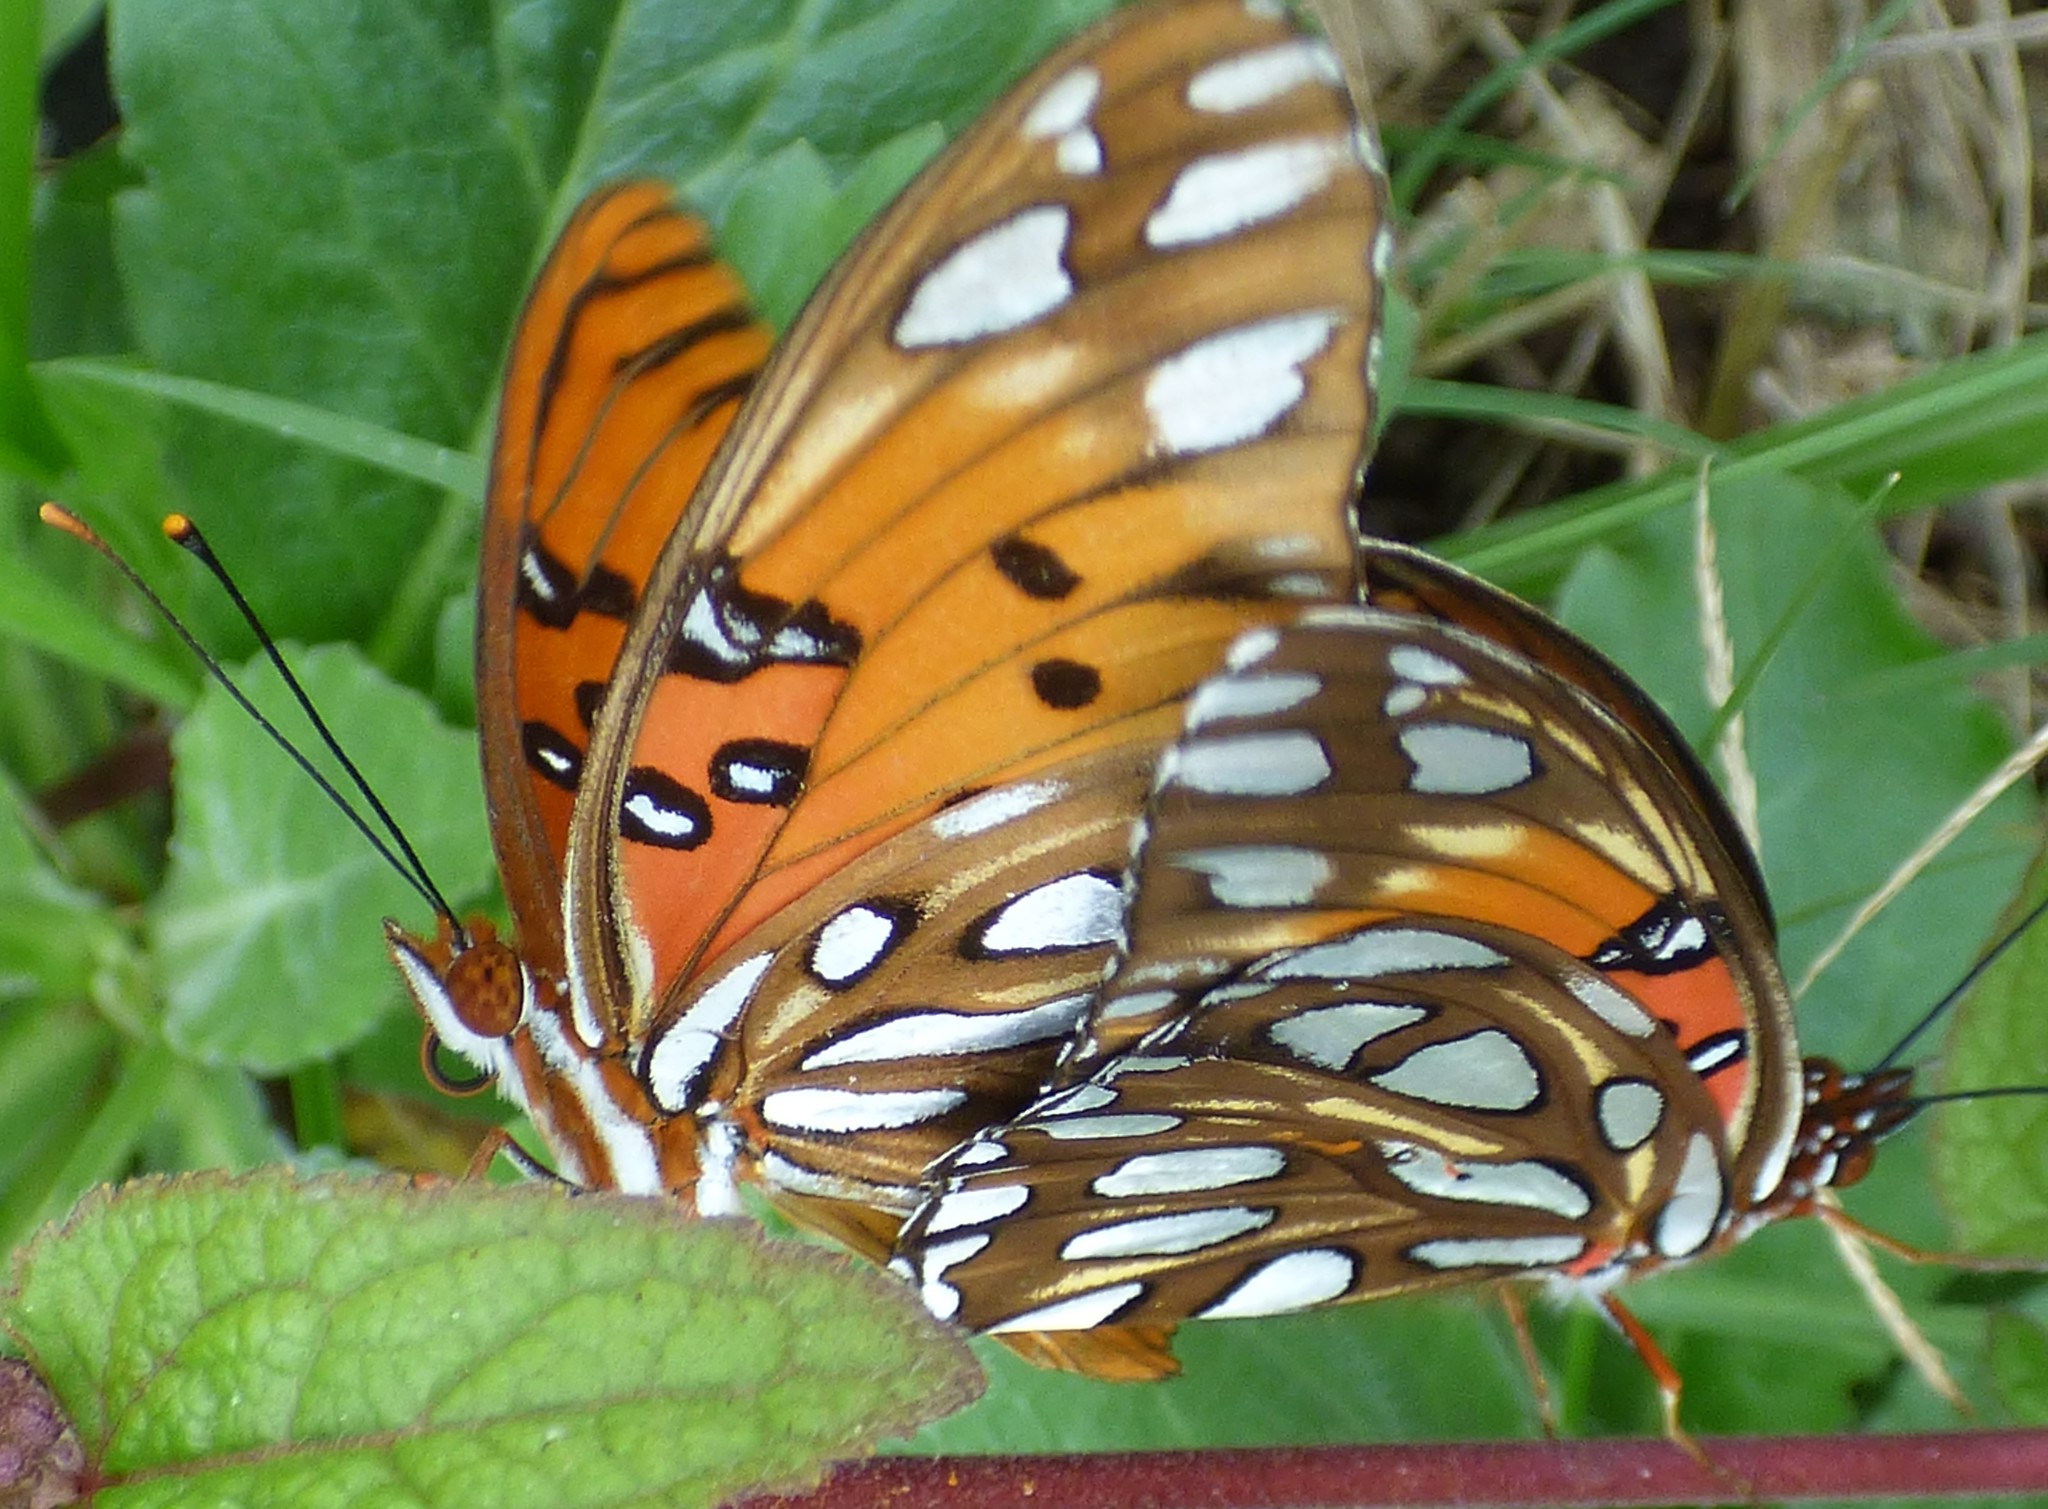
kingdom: Animalia
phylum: Arthropoda
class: Insecta
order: Lepidoptera
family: Nymphalidae
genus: Dione
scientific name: Dione vanillae
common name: Gulf fritillary
